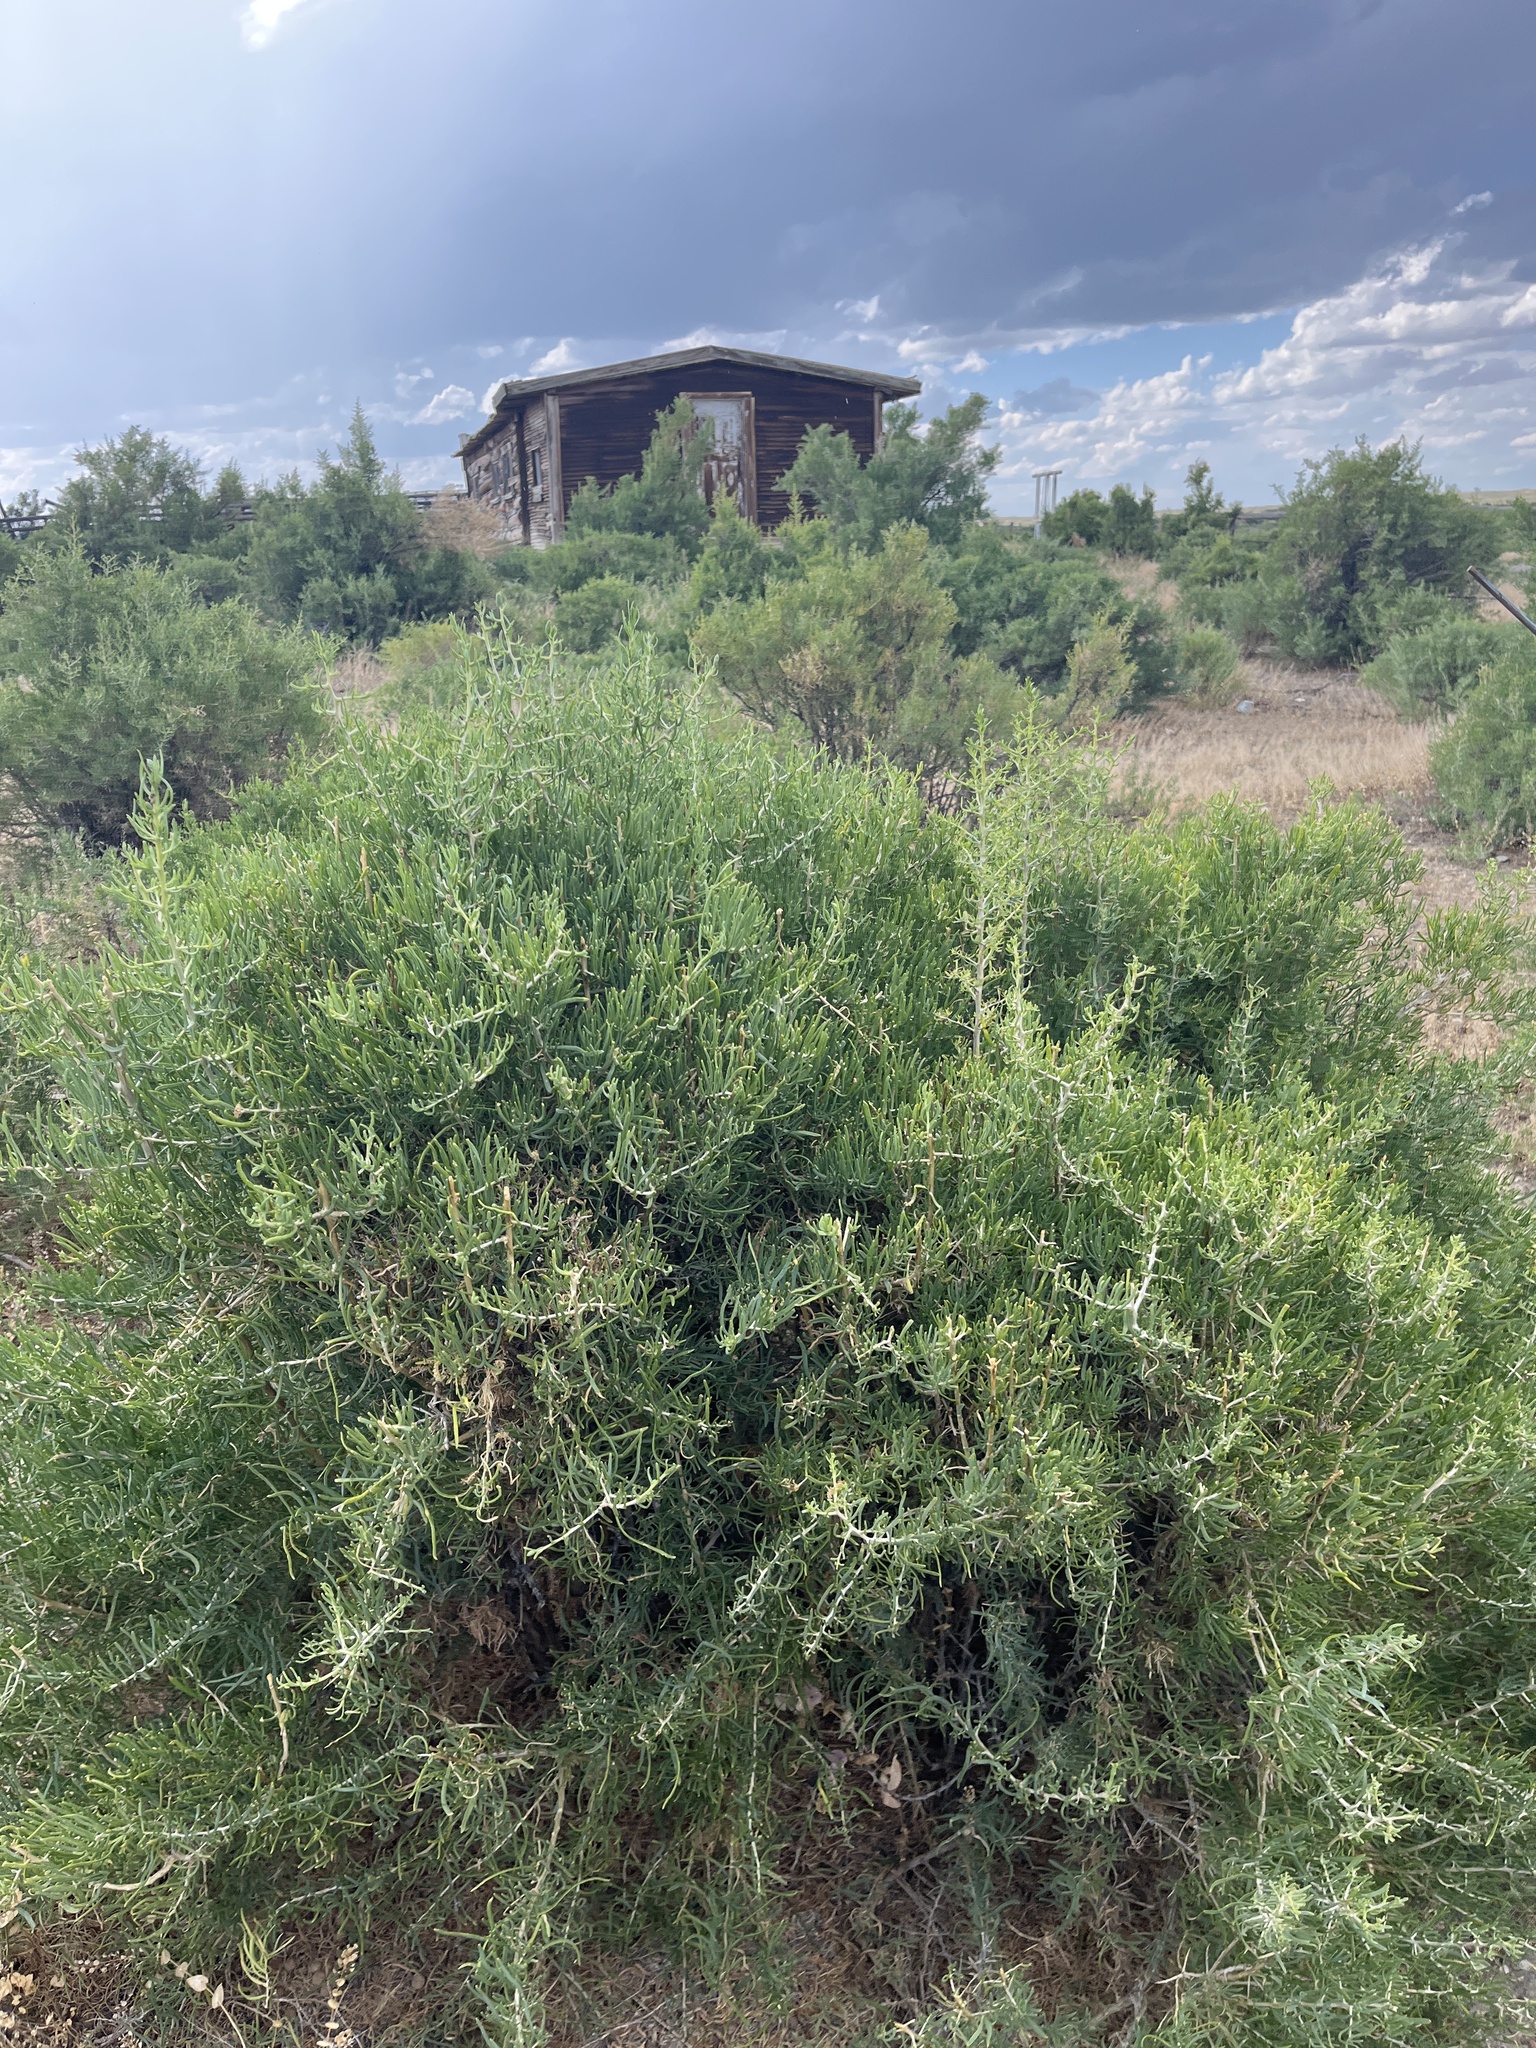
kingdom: Plantae
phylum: Tracheophyta
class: Magnoliopsida
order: Caryophyllales
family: Sarcobataceae
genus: Sarcobatus
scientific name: Sarcobatus vermiculatus
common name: Greasewood
